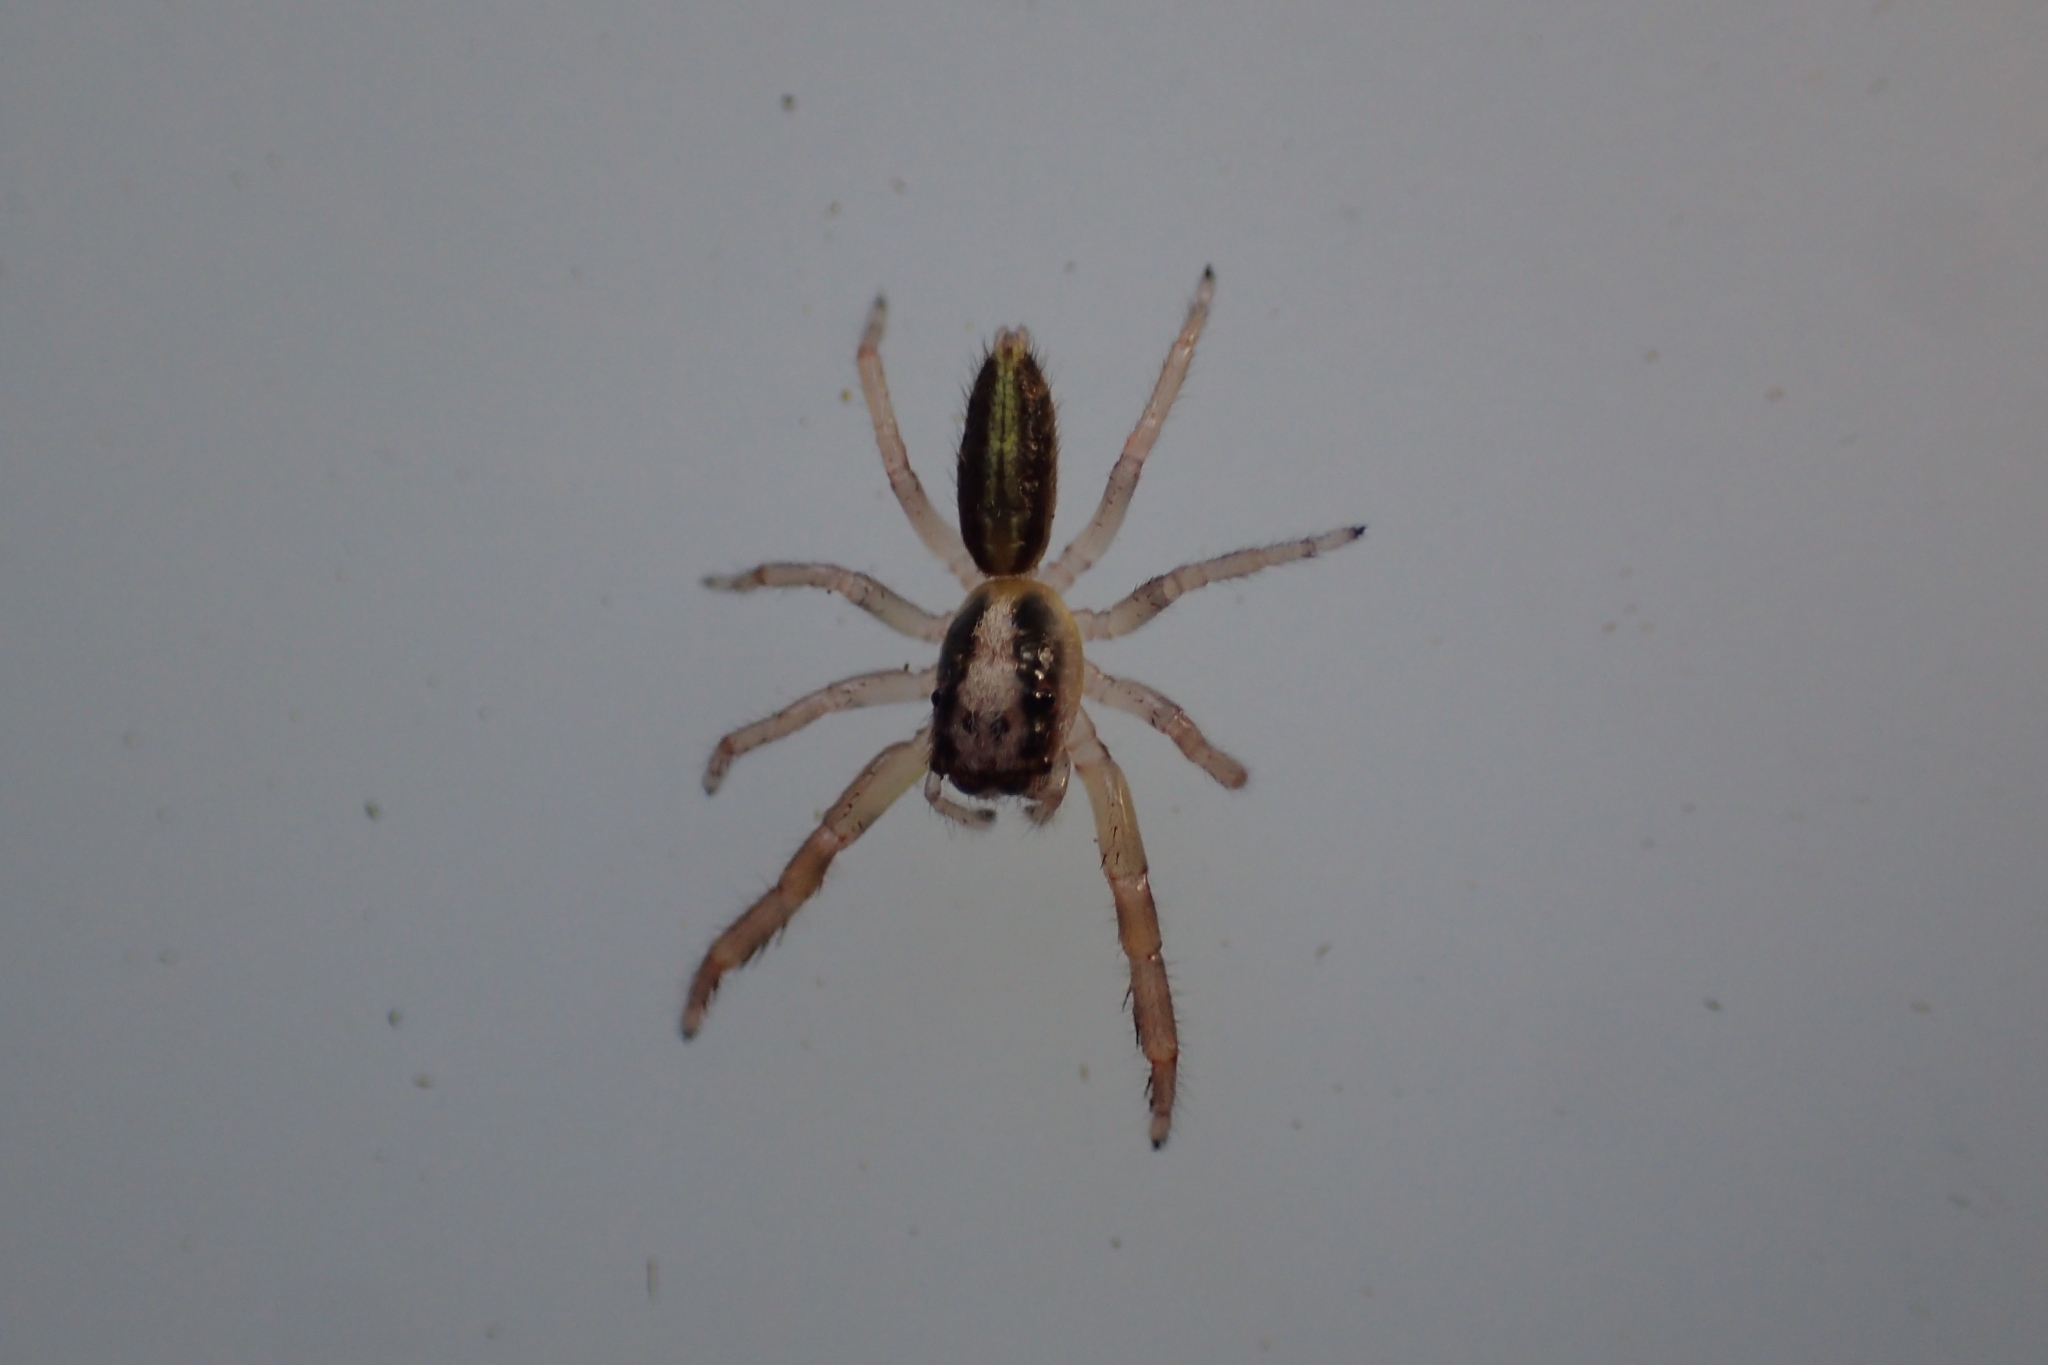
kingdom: Animalia
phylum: Arthropoda
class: Arachnida
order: Araneae
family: Salticidae
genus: Trite
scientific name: Trite planiceps
